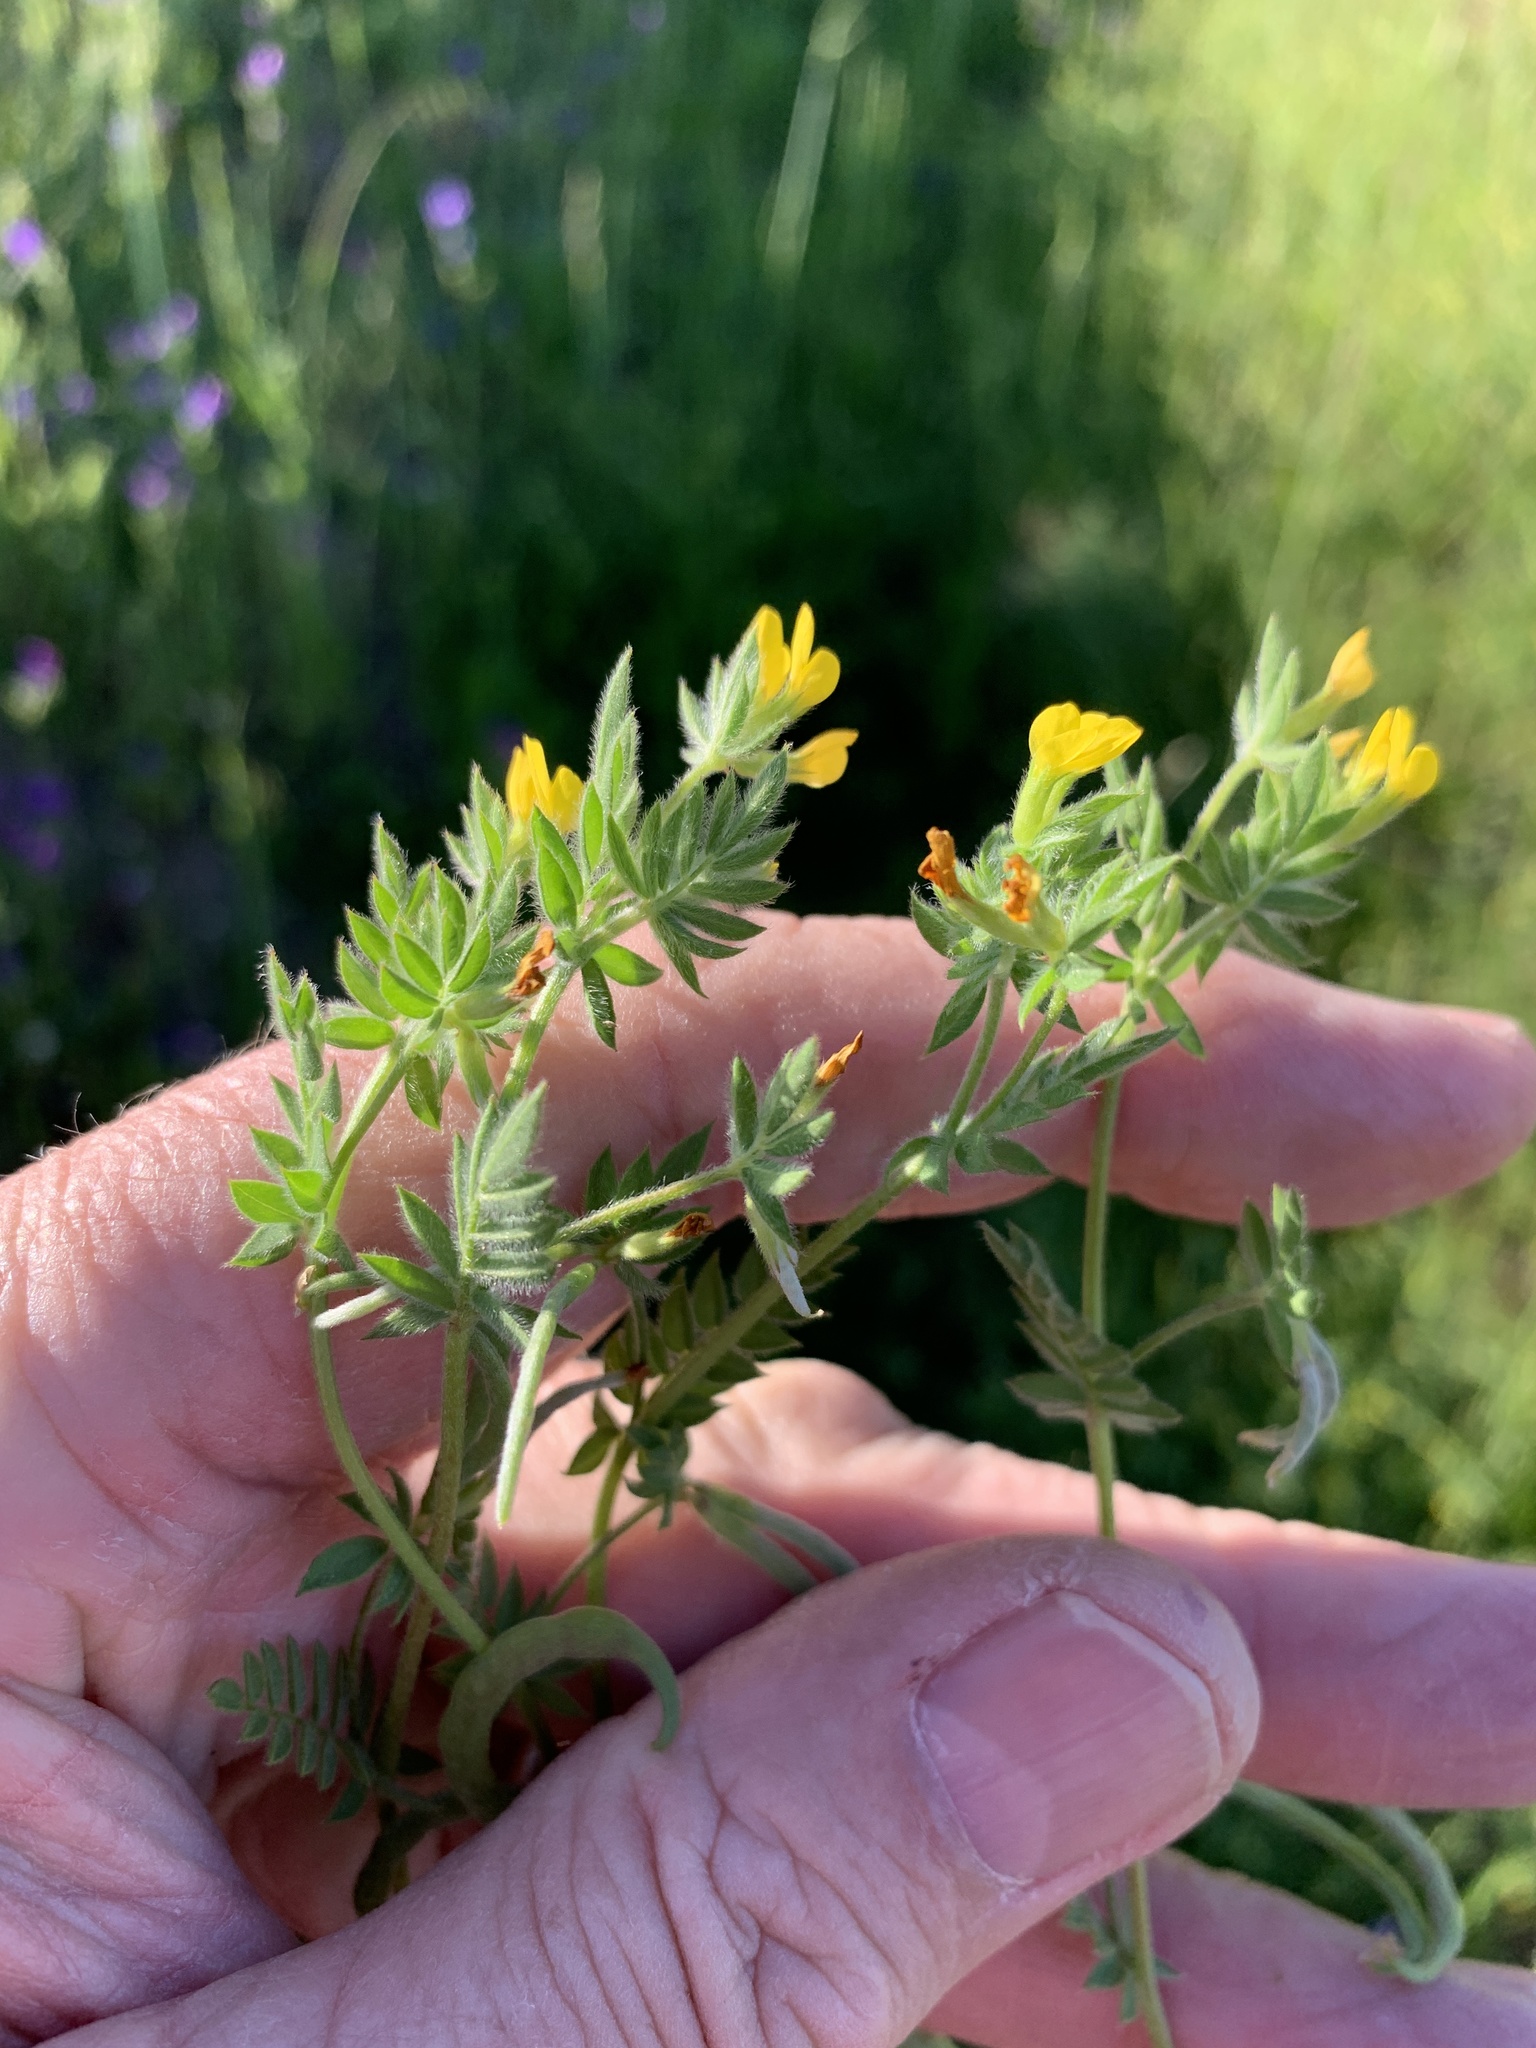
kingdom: Plantae
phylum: Tracheophyta
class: Magnoliopsida
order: Fabales
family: Fabaceae
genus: Ornithopus
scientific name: Ornithopus compressus
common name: Yellow serradella
